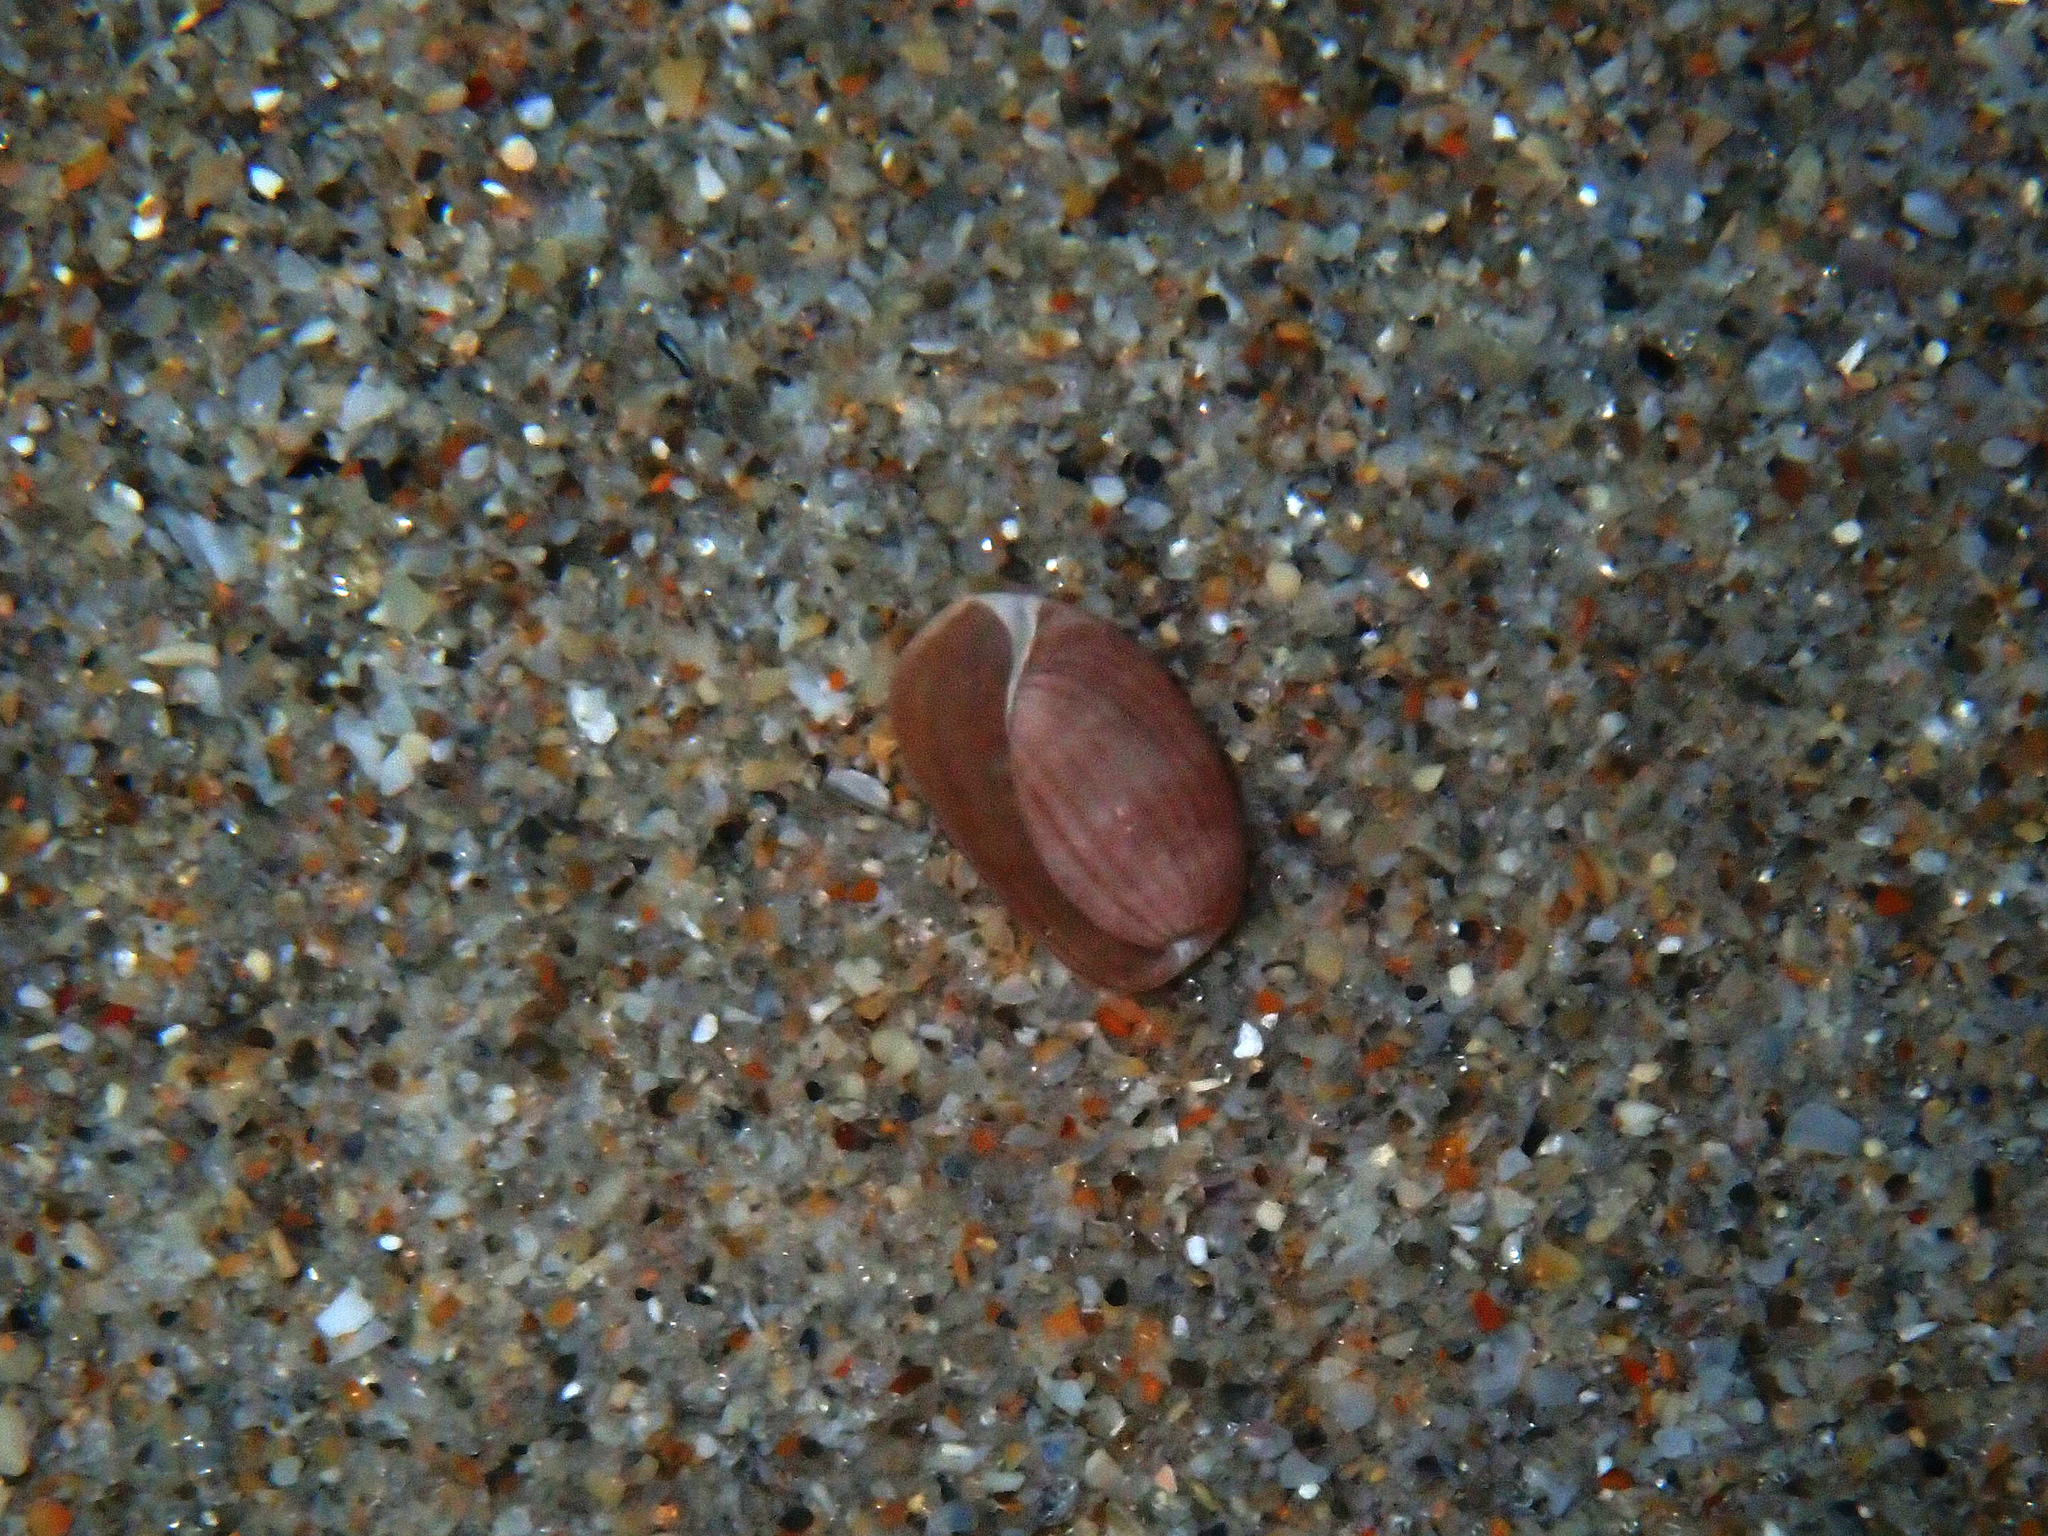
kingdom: Animalia
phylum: Mollusca
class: Gastropoda
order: Cephalaspidea
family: Bullidae
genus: Bulla
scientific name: Bulla occidentalis
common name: Common west-indian bubble
